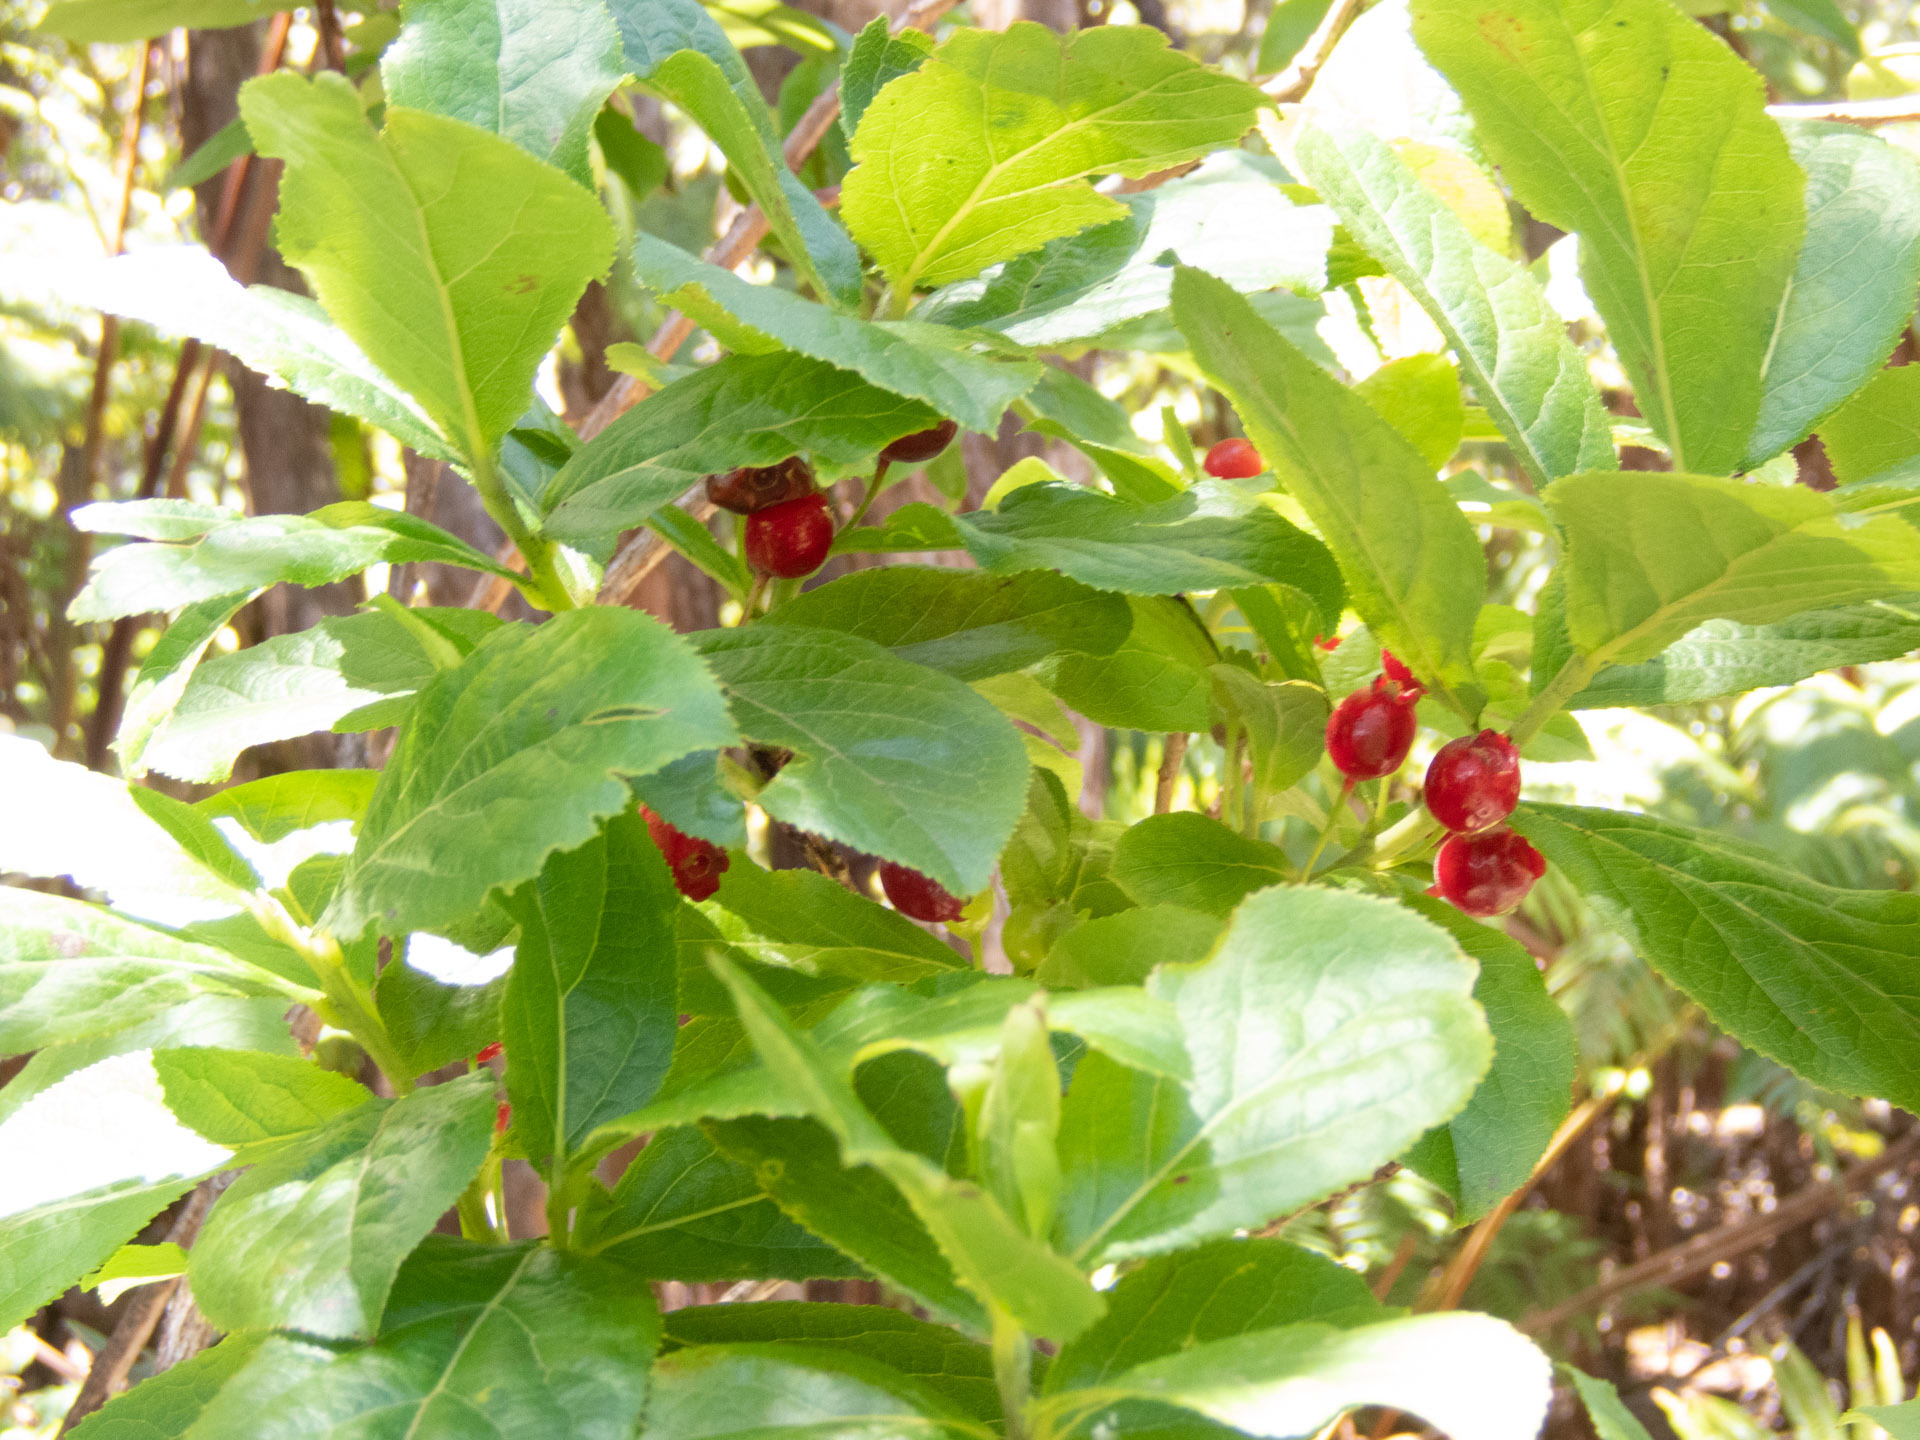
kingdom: Plantae
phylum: Tracheophyta
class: Magnoliopsida
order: Ericales
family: Ericaceae
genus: Vaccinium
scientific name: Vaccinium calycinum
